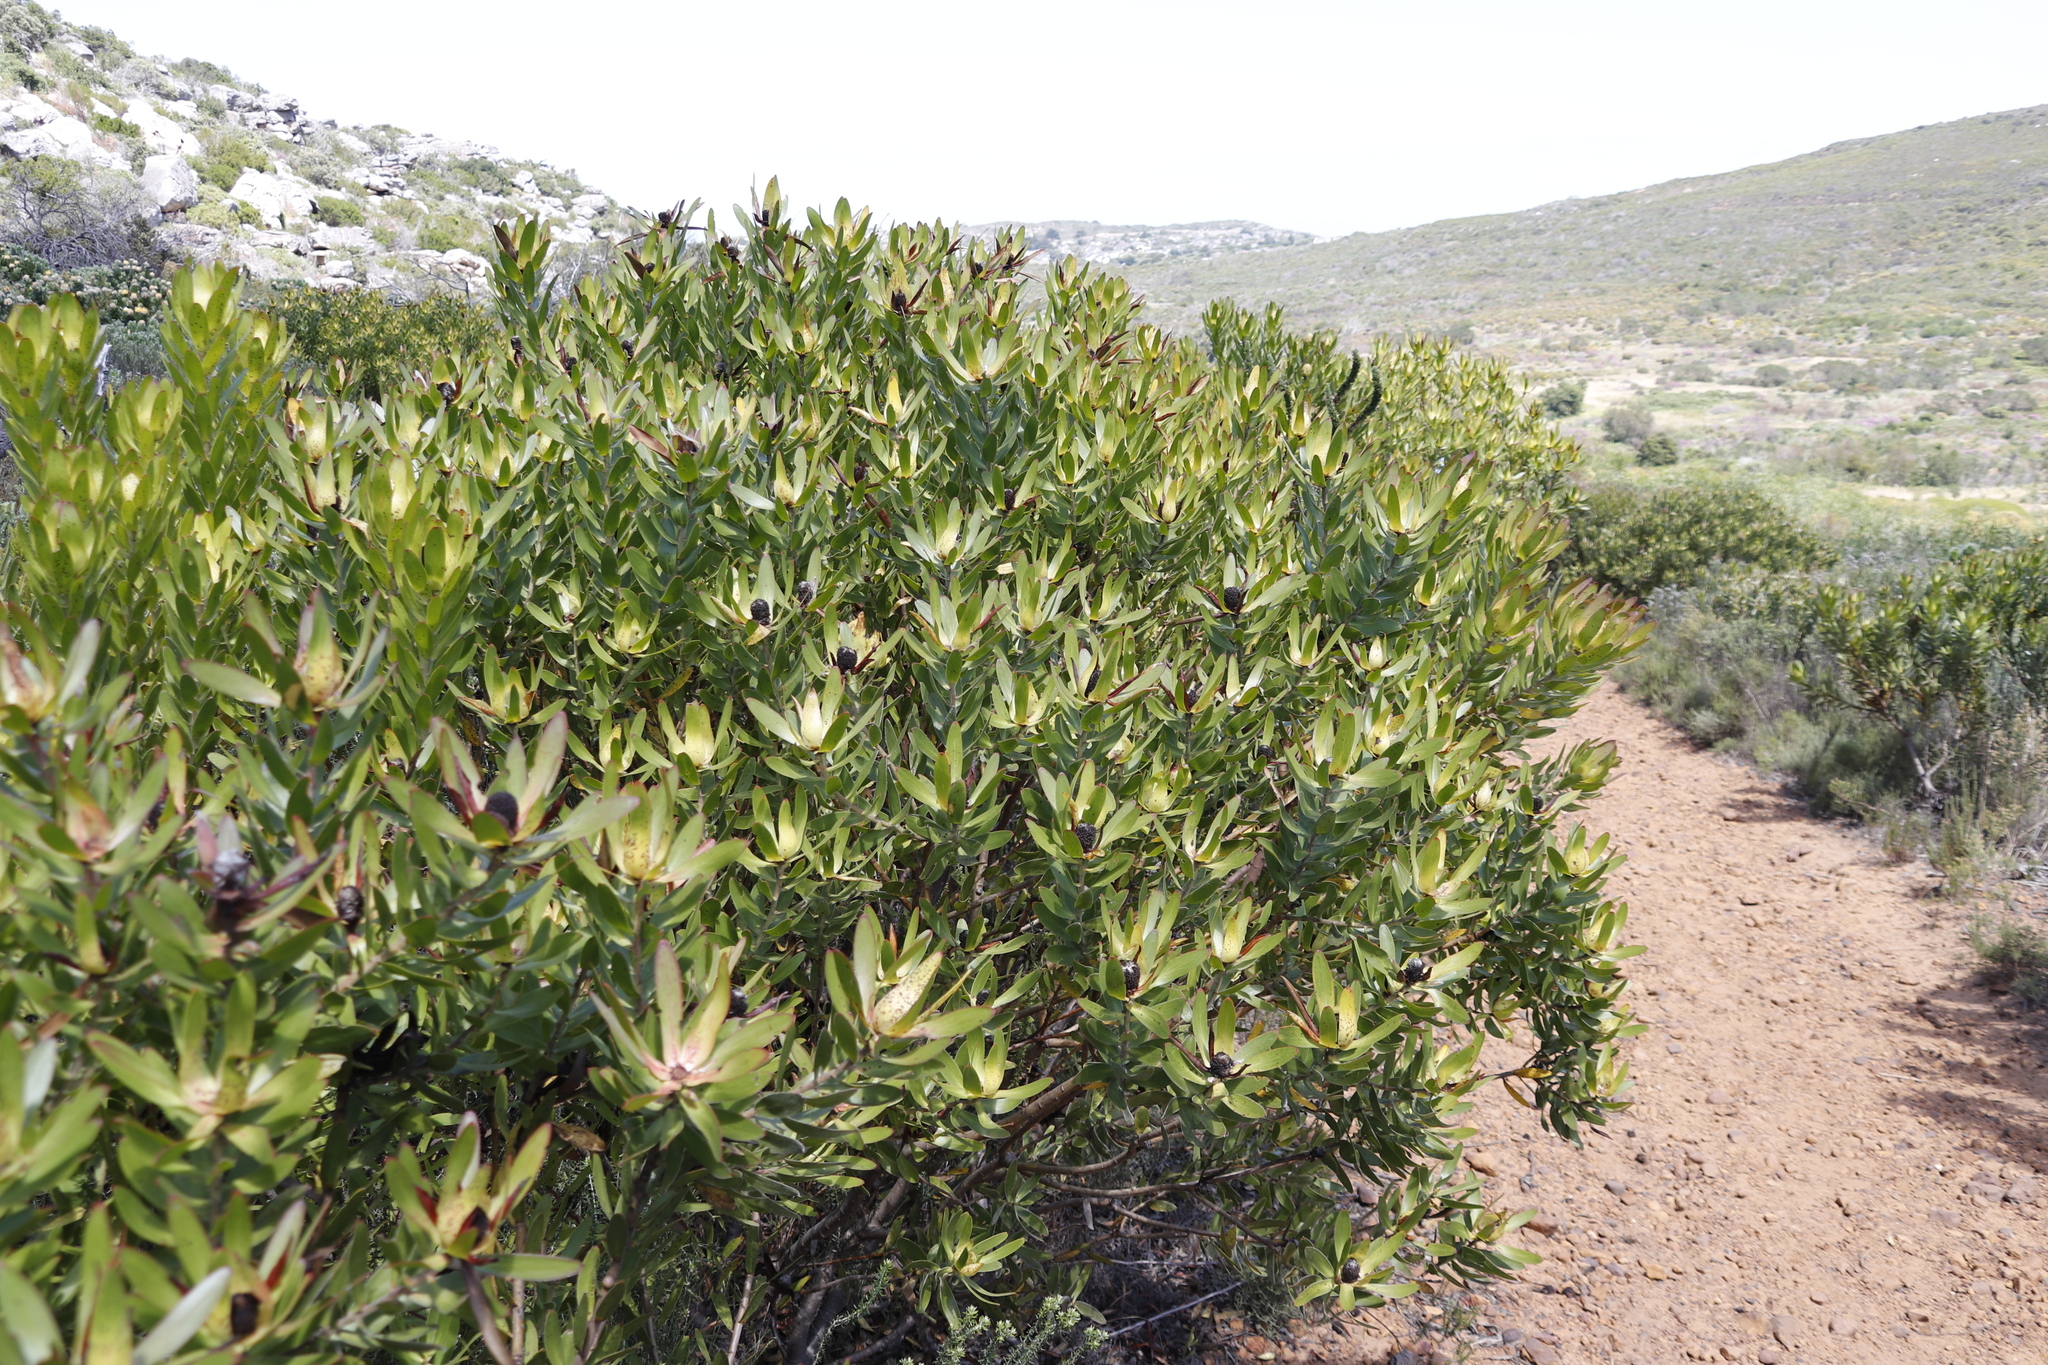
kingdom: Plantae
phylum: Tracheophyta
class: Magnoliopsida
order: Proteales
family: Proteaceae
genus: Leucadendron
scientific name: Leucadendron laureolum
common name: Golden sunshinebush
